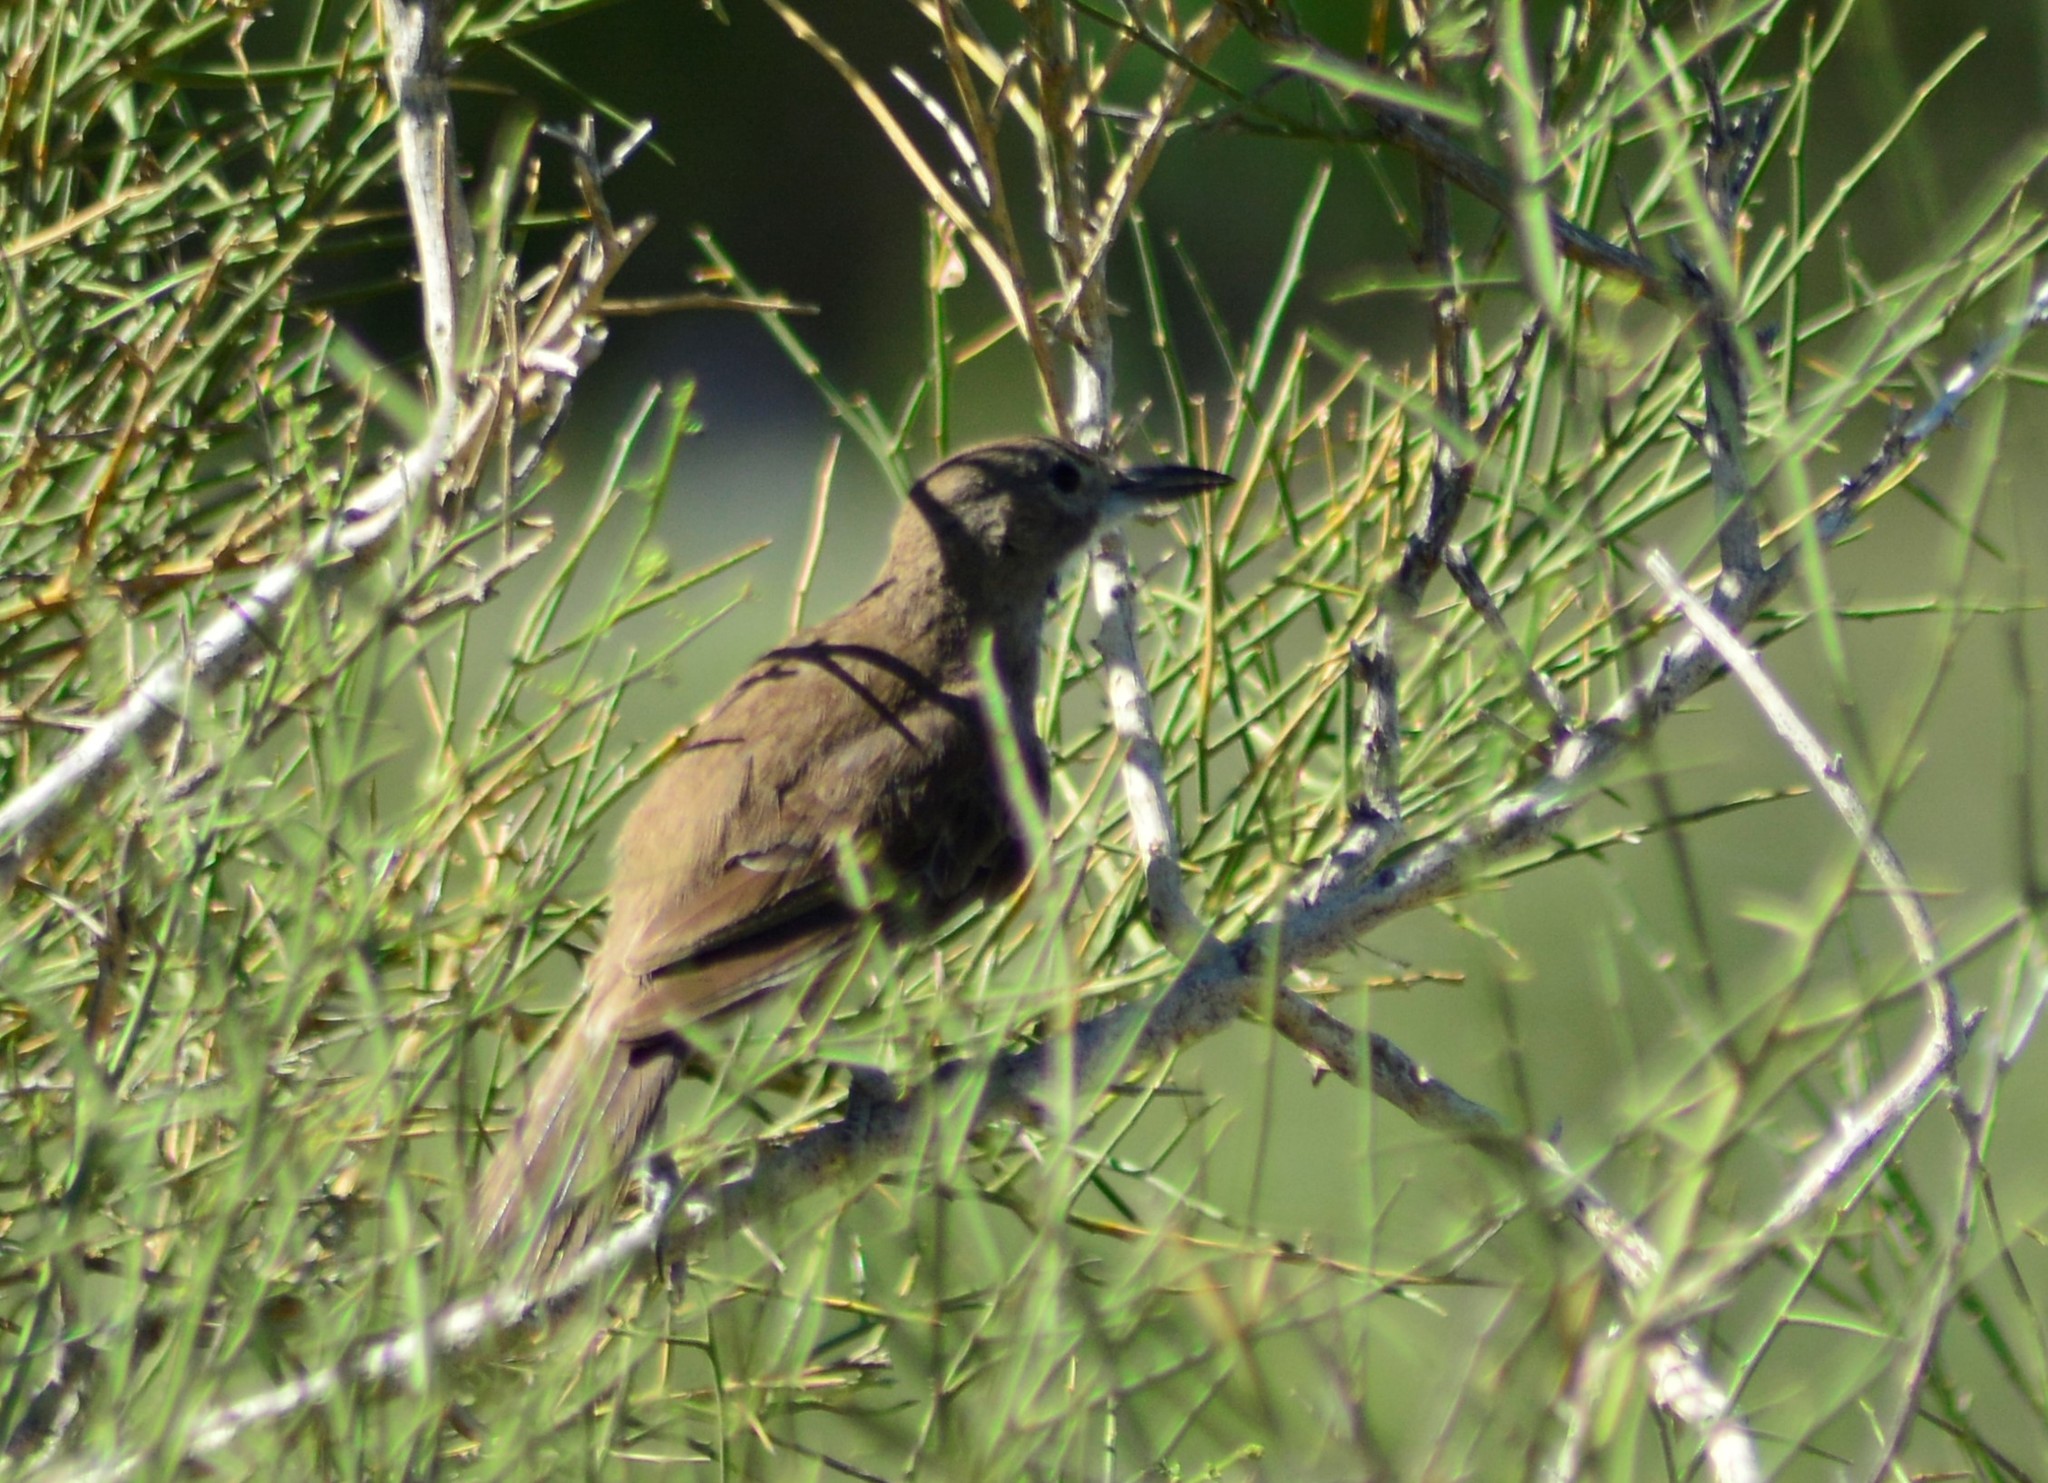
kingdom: Animalia
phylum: Chordata
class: Aves
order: Passeriformes
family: Furnariidae
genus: Pseudoseisura
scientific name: Pseudoseisura gutturalis
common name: White-throated cacholote
